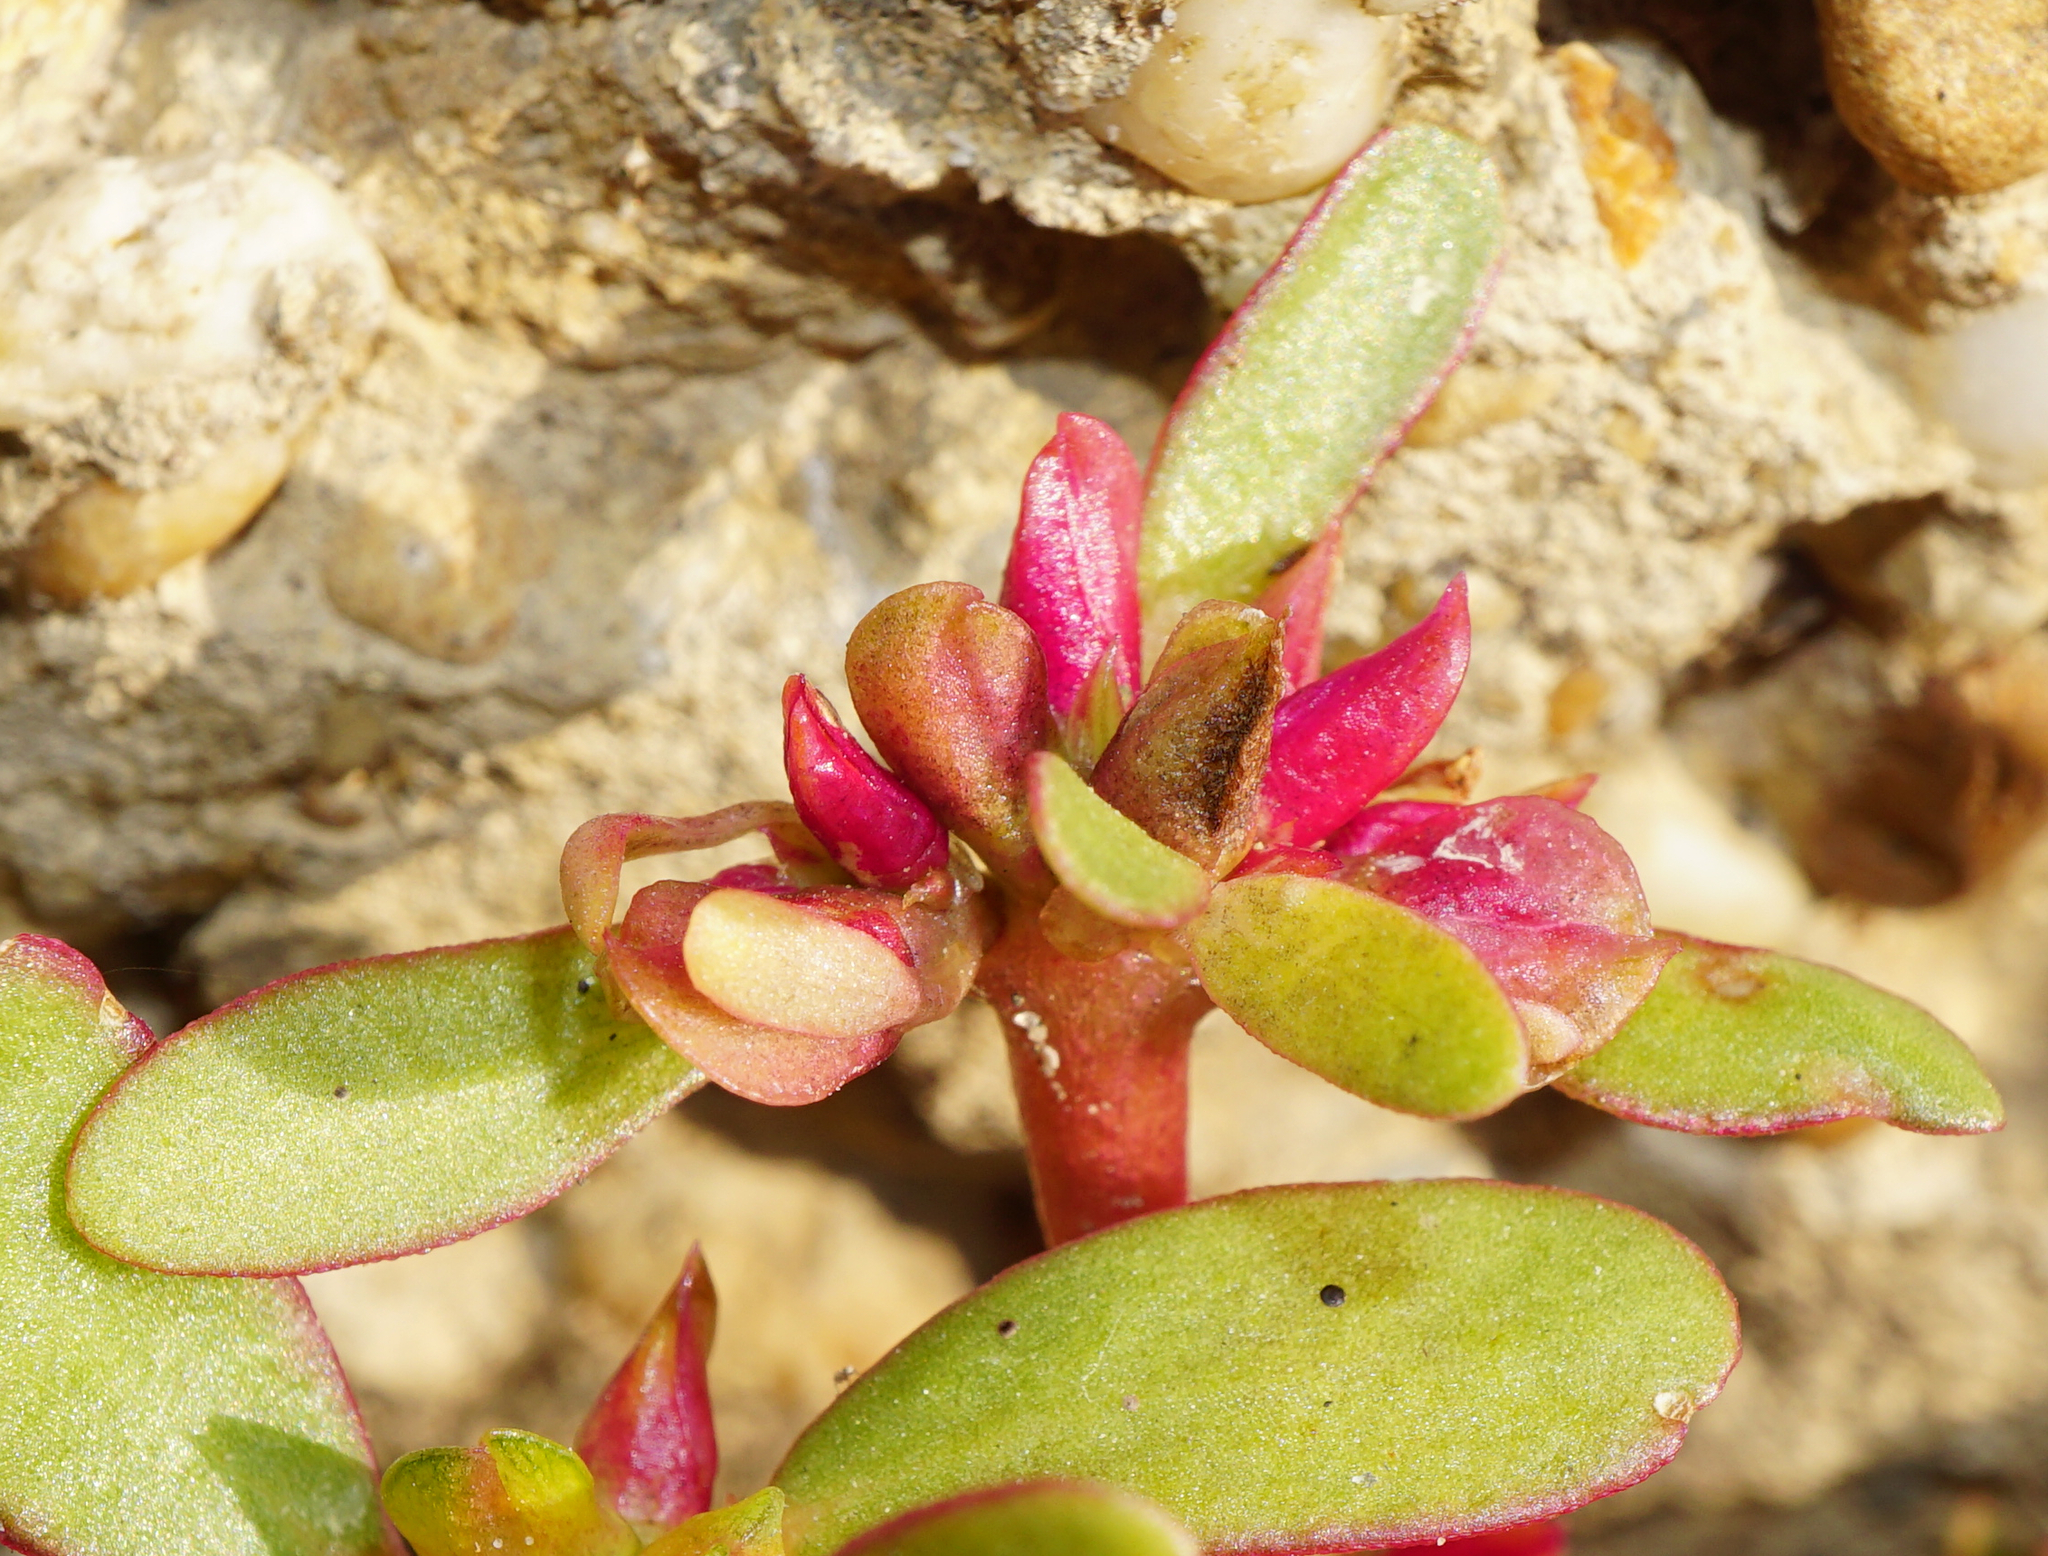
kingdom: Plantae
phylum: Tracheophyta
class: Magnoliopsida
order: Caryophyllales
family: Portulacaceae
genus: Portulaca
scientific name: Portulaca oleracea
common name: Common purslane
